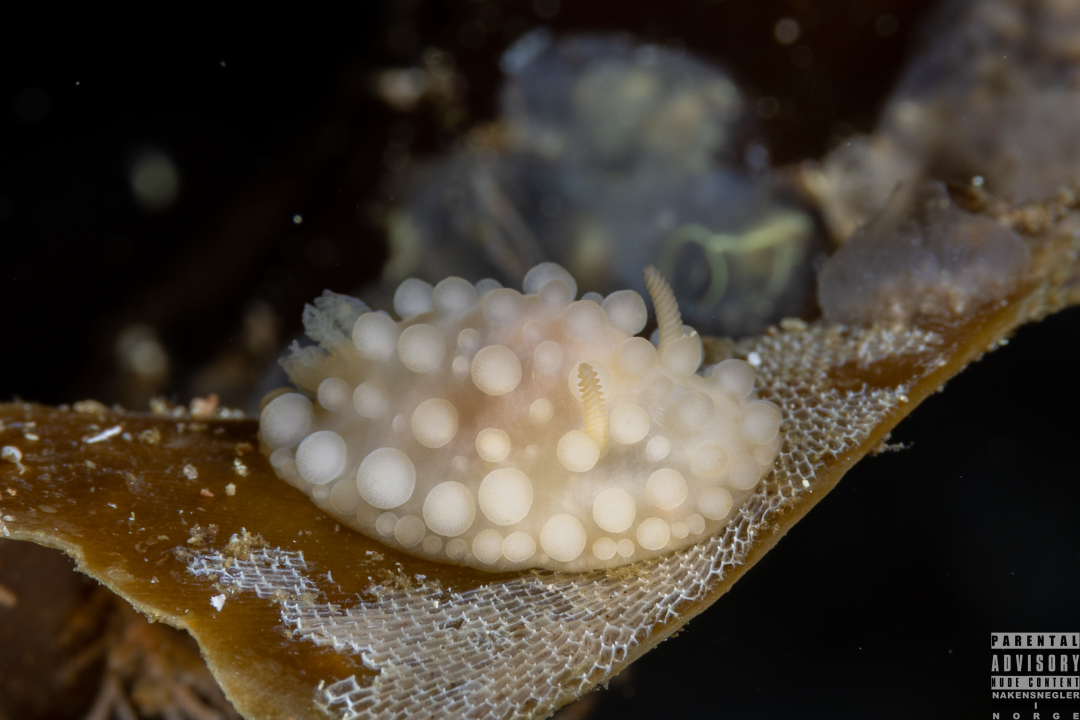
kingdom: Animalia
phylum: Mollusca
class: Gastropoda
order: Nudibranchia
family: Onchidorididae
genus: Adalaria
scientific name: Adalaria loveni
